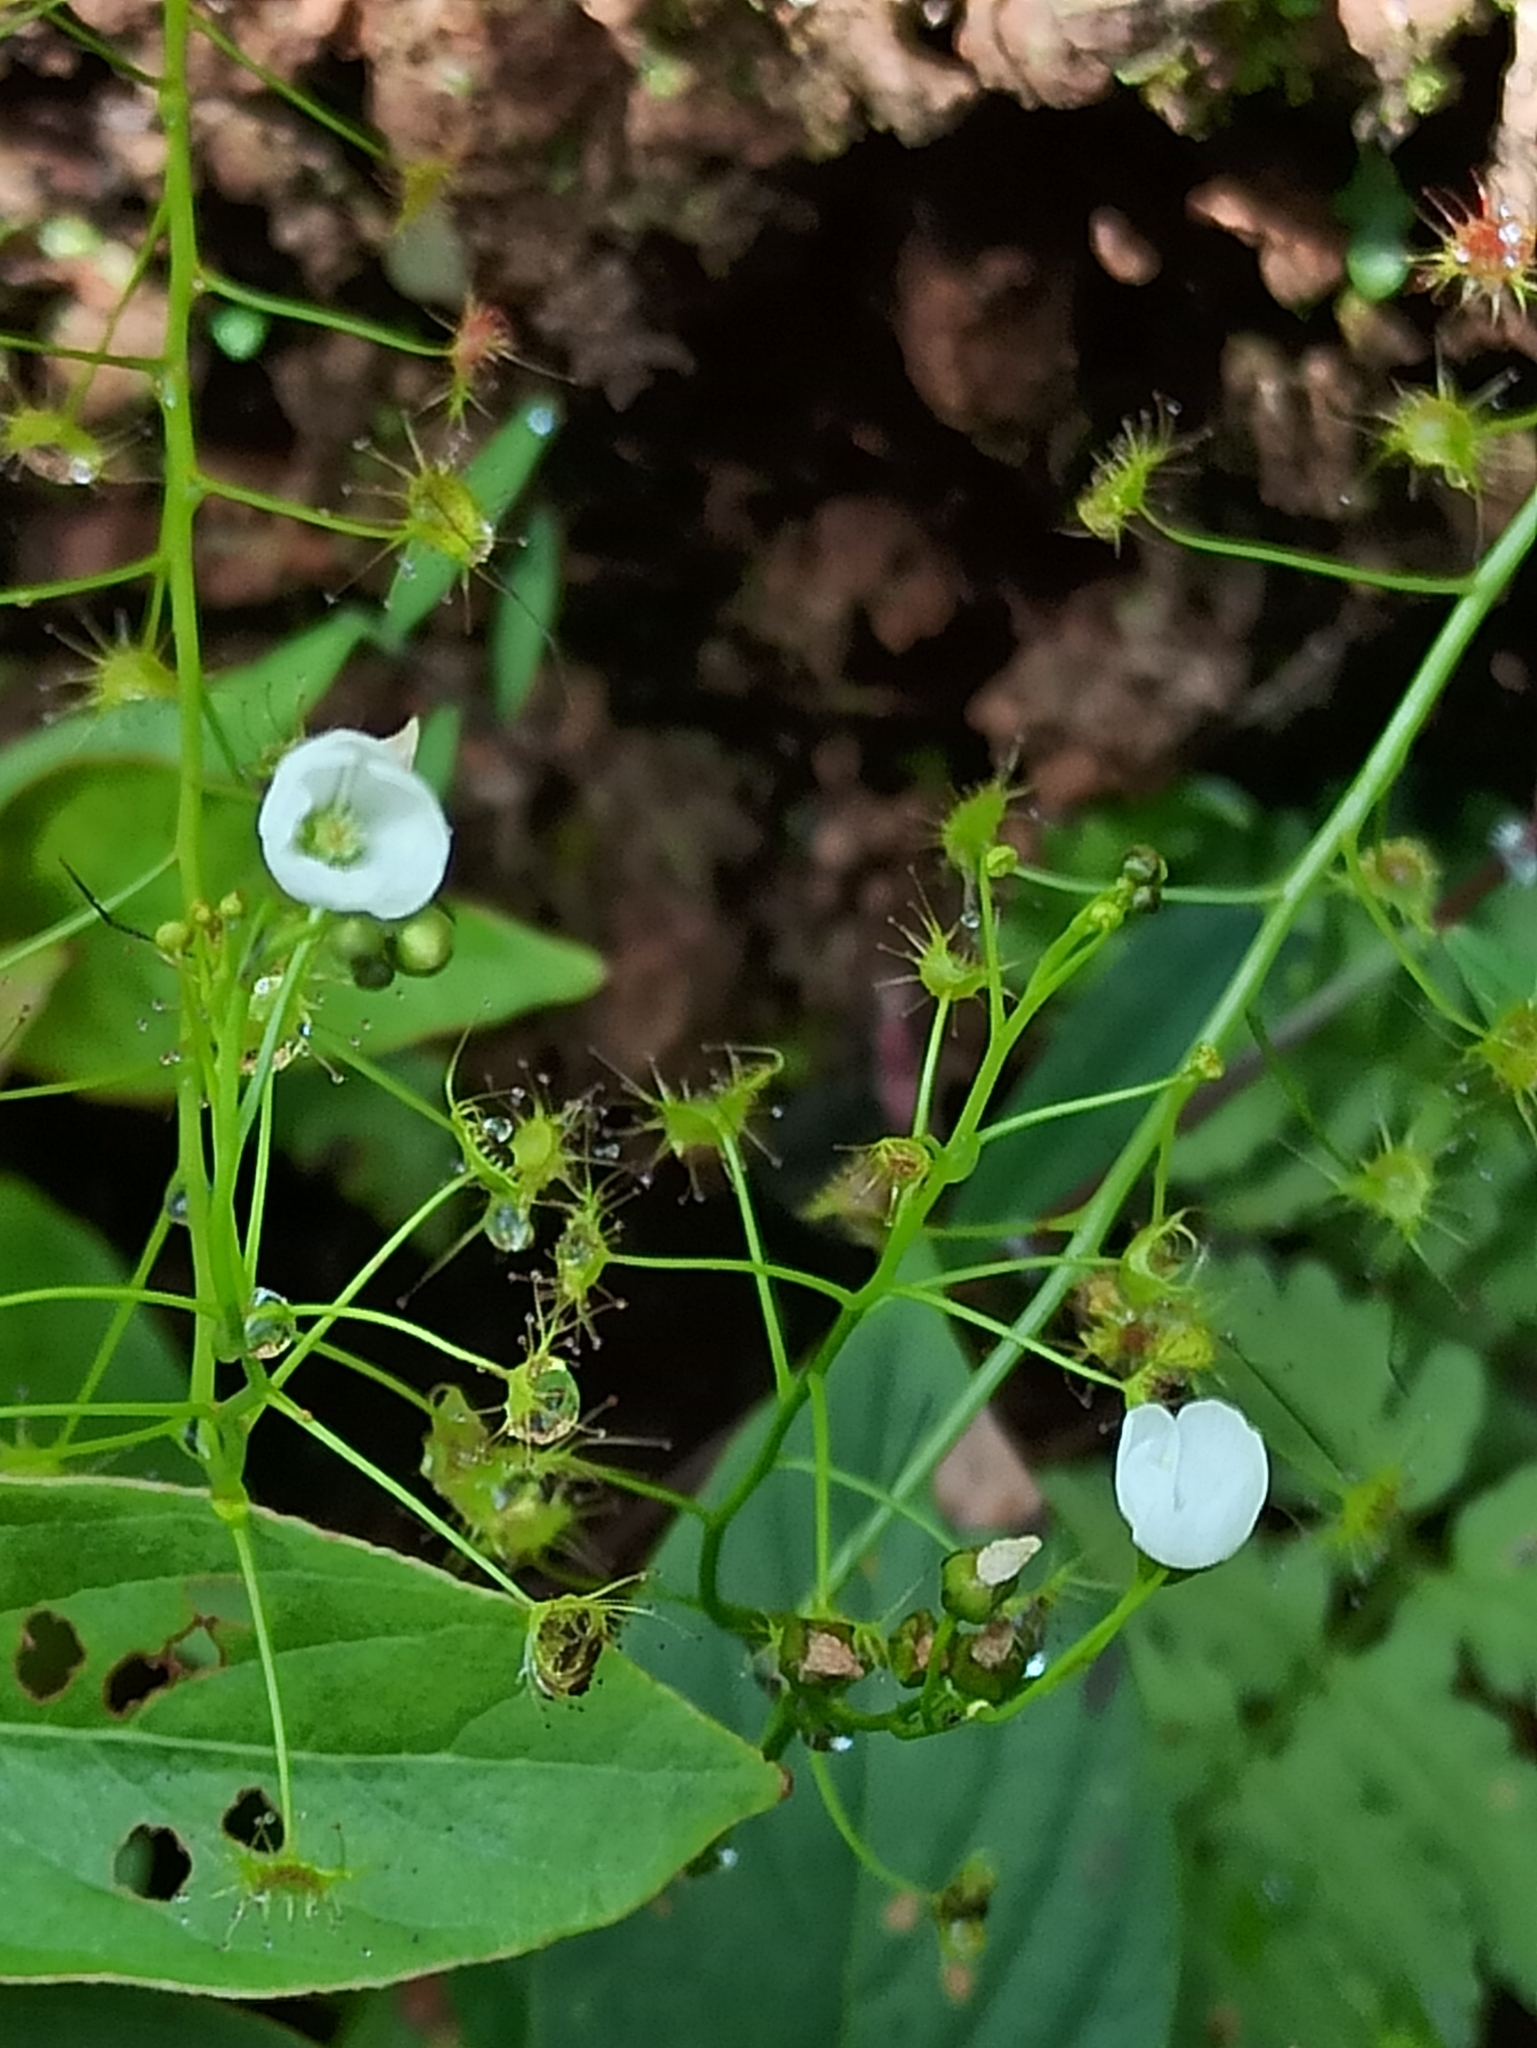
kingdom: Plantae
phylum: Tracheophyta
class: Magnoliopsida
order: Caryophyllales
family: Droseraceae
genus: Drosera
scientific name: Drosera peltata
